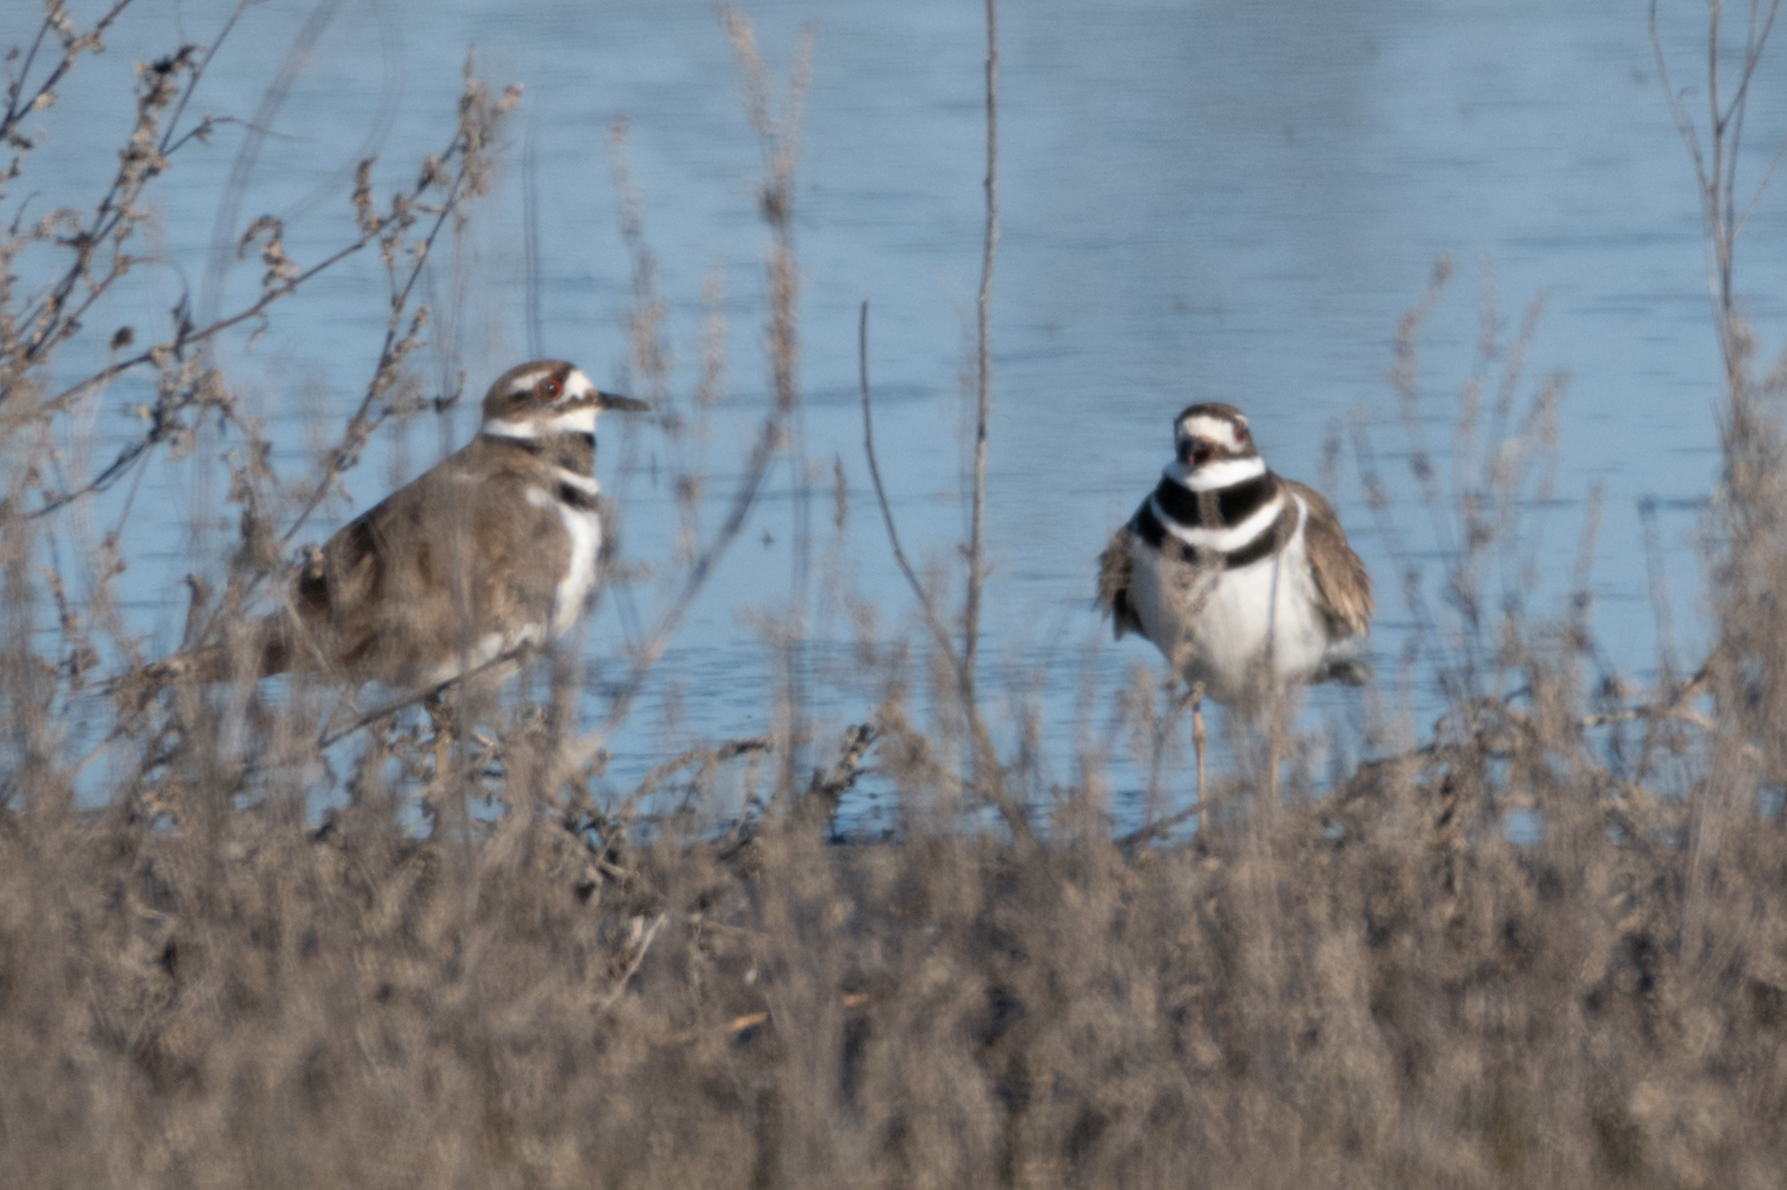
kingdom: Animalia
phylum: Chordata
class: Aves
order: Charadriiformes
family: Charadriidae
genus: Charadrius
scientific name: Charadrius vociferus
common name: Killdeer
